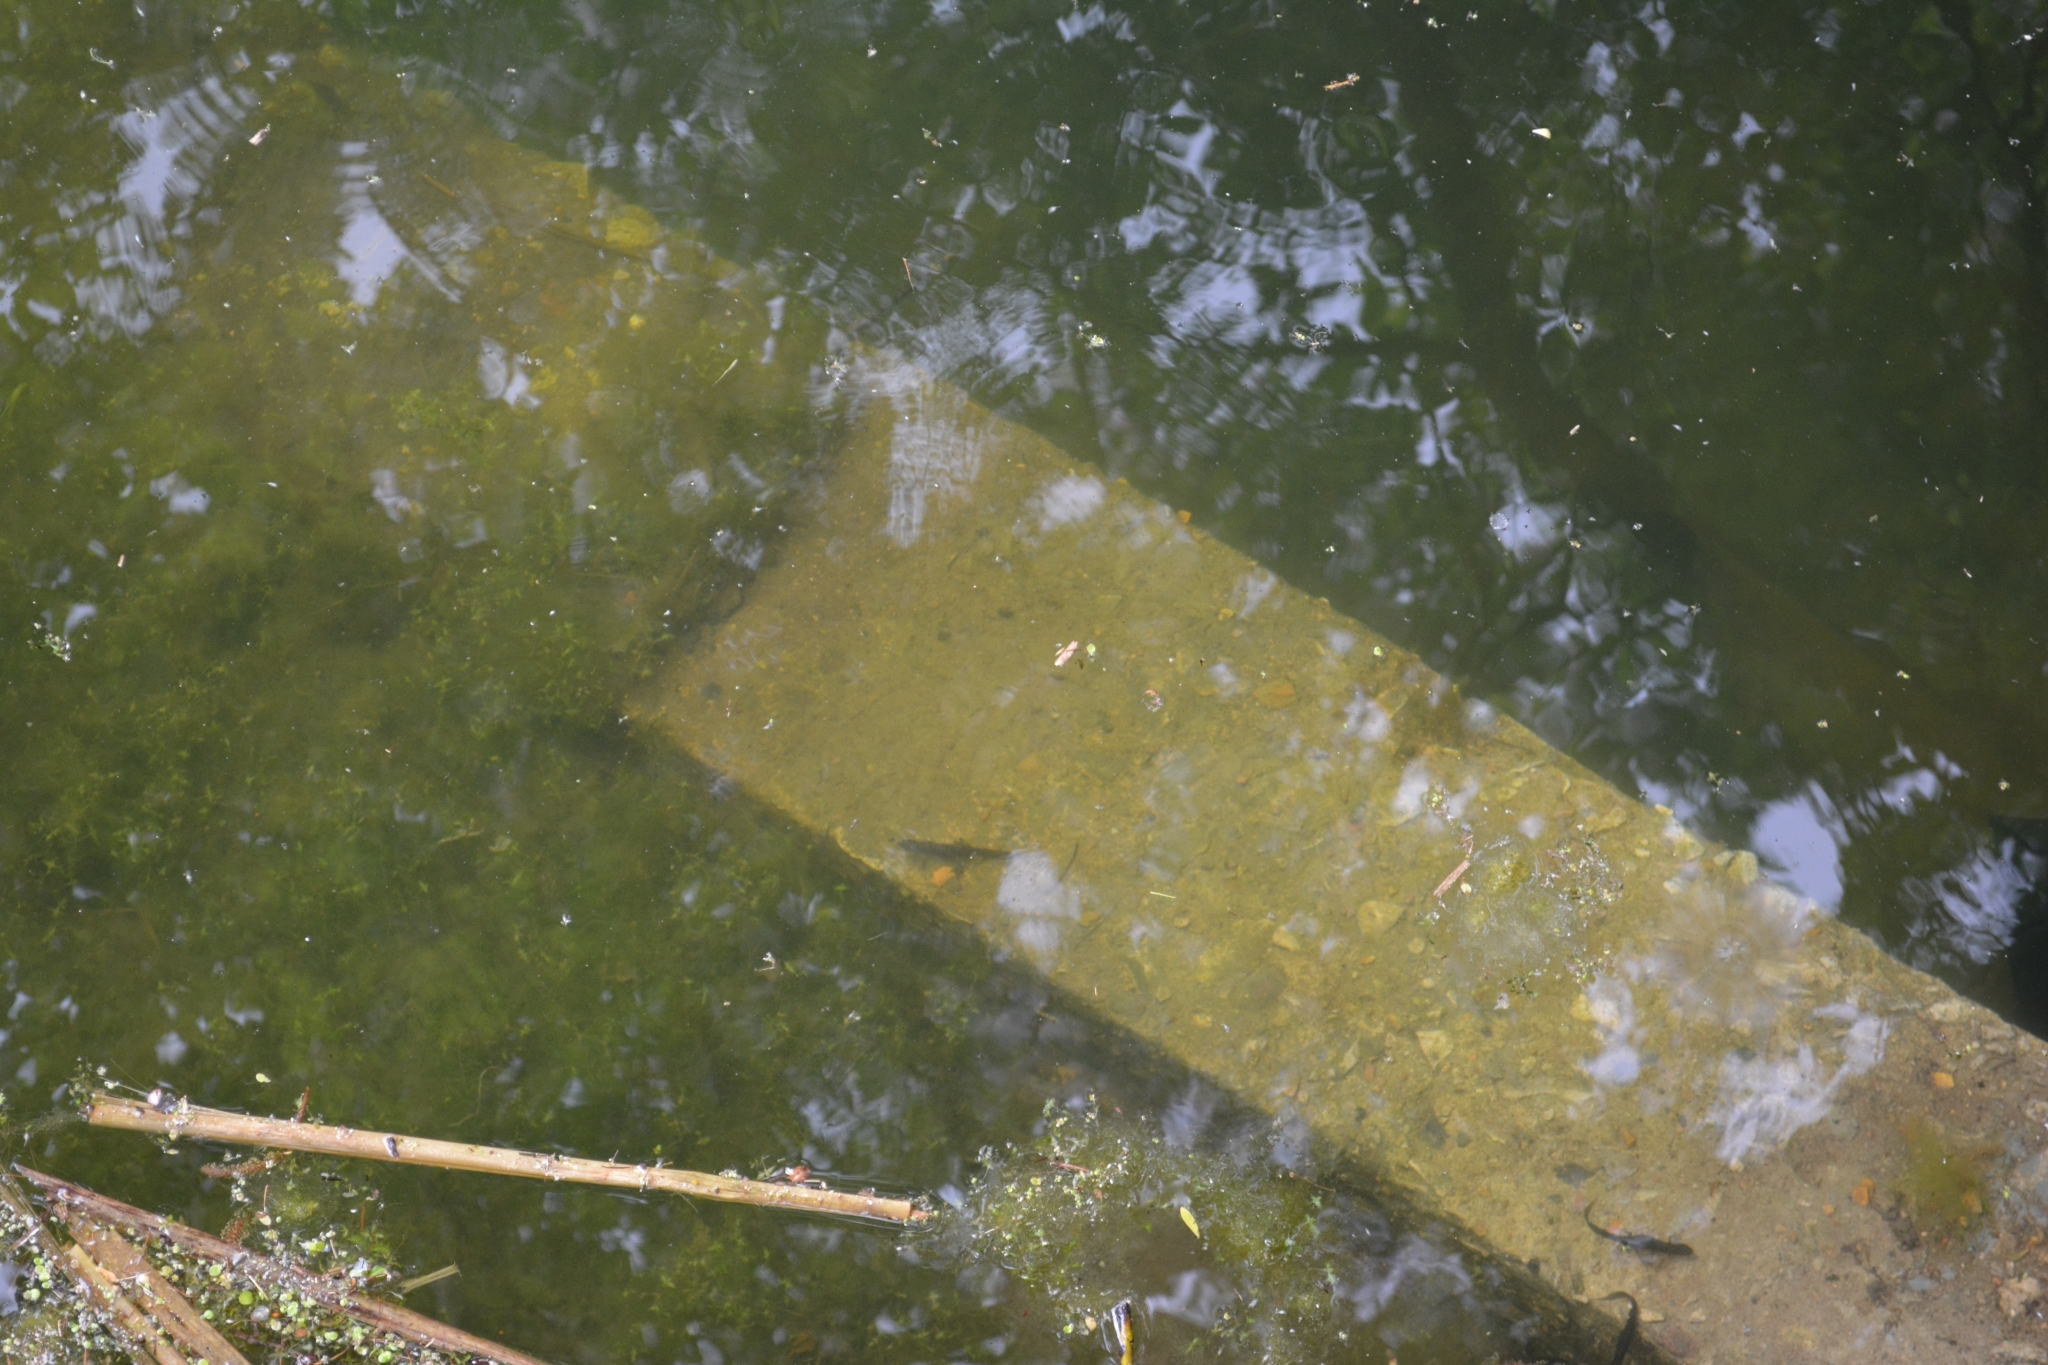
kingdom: Animalia
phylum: Chordata
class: Amphibia
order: Caudata
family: Salamandridae
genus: Lissotriton
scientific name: Lissotriton vulgaris
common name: Smooth newt
